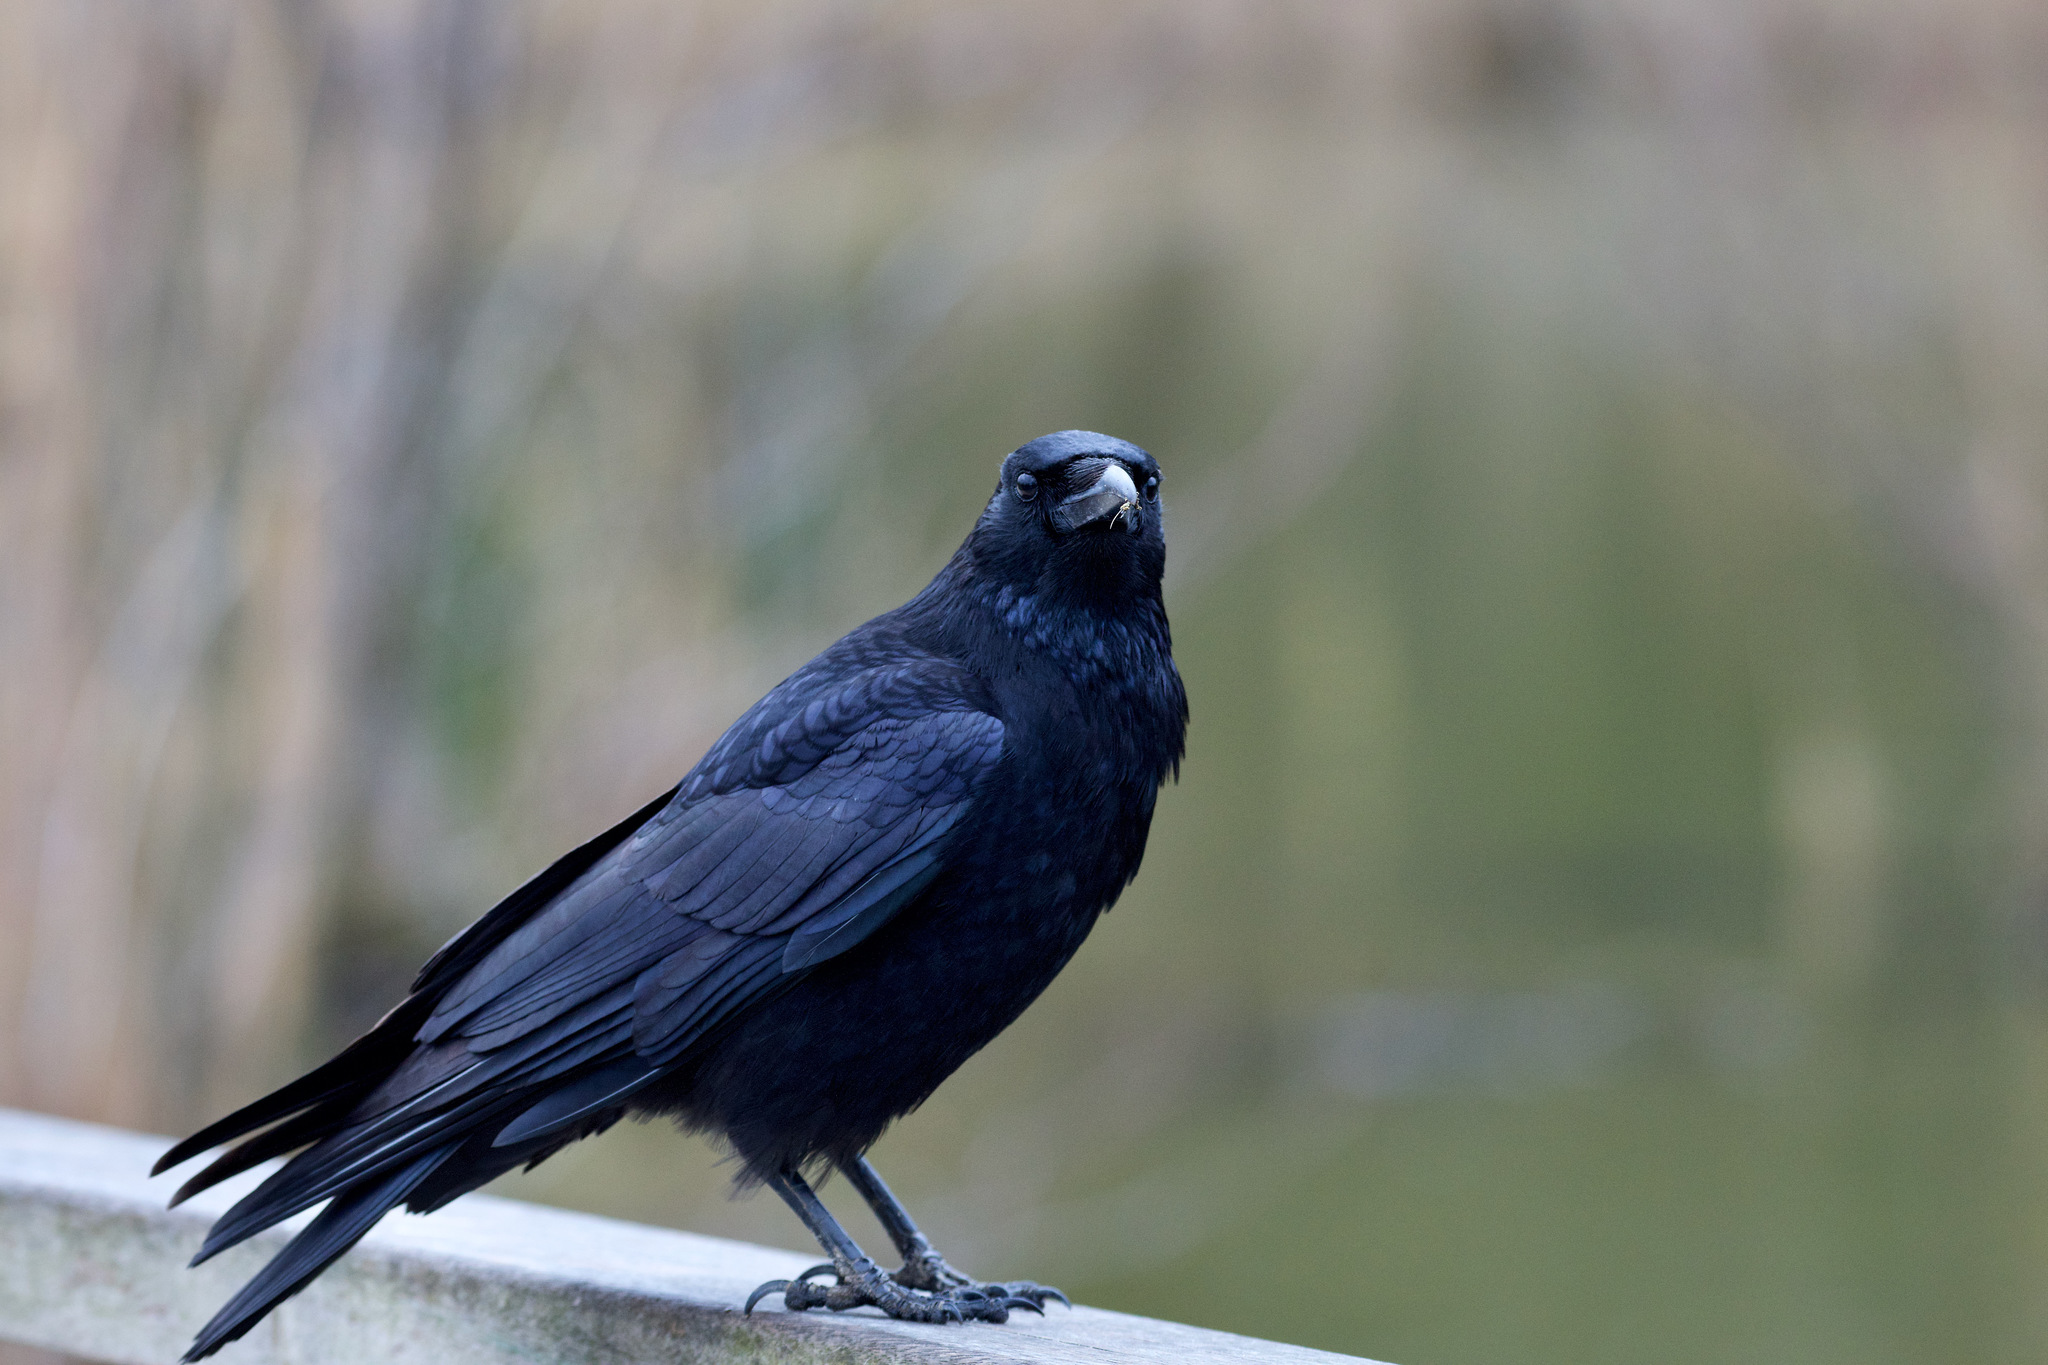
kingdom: Animalia
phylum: Chordata
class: Aves
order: Passeriformes
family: Corvidae
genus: Corvus
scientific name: Corvus corone
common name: Carrion crow
